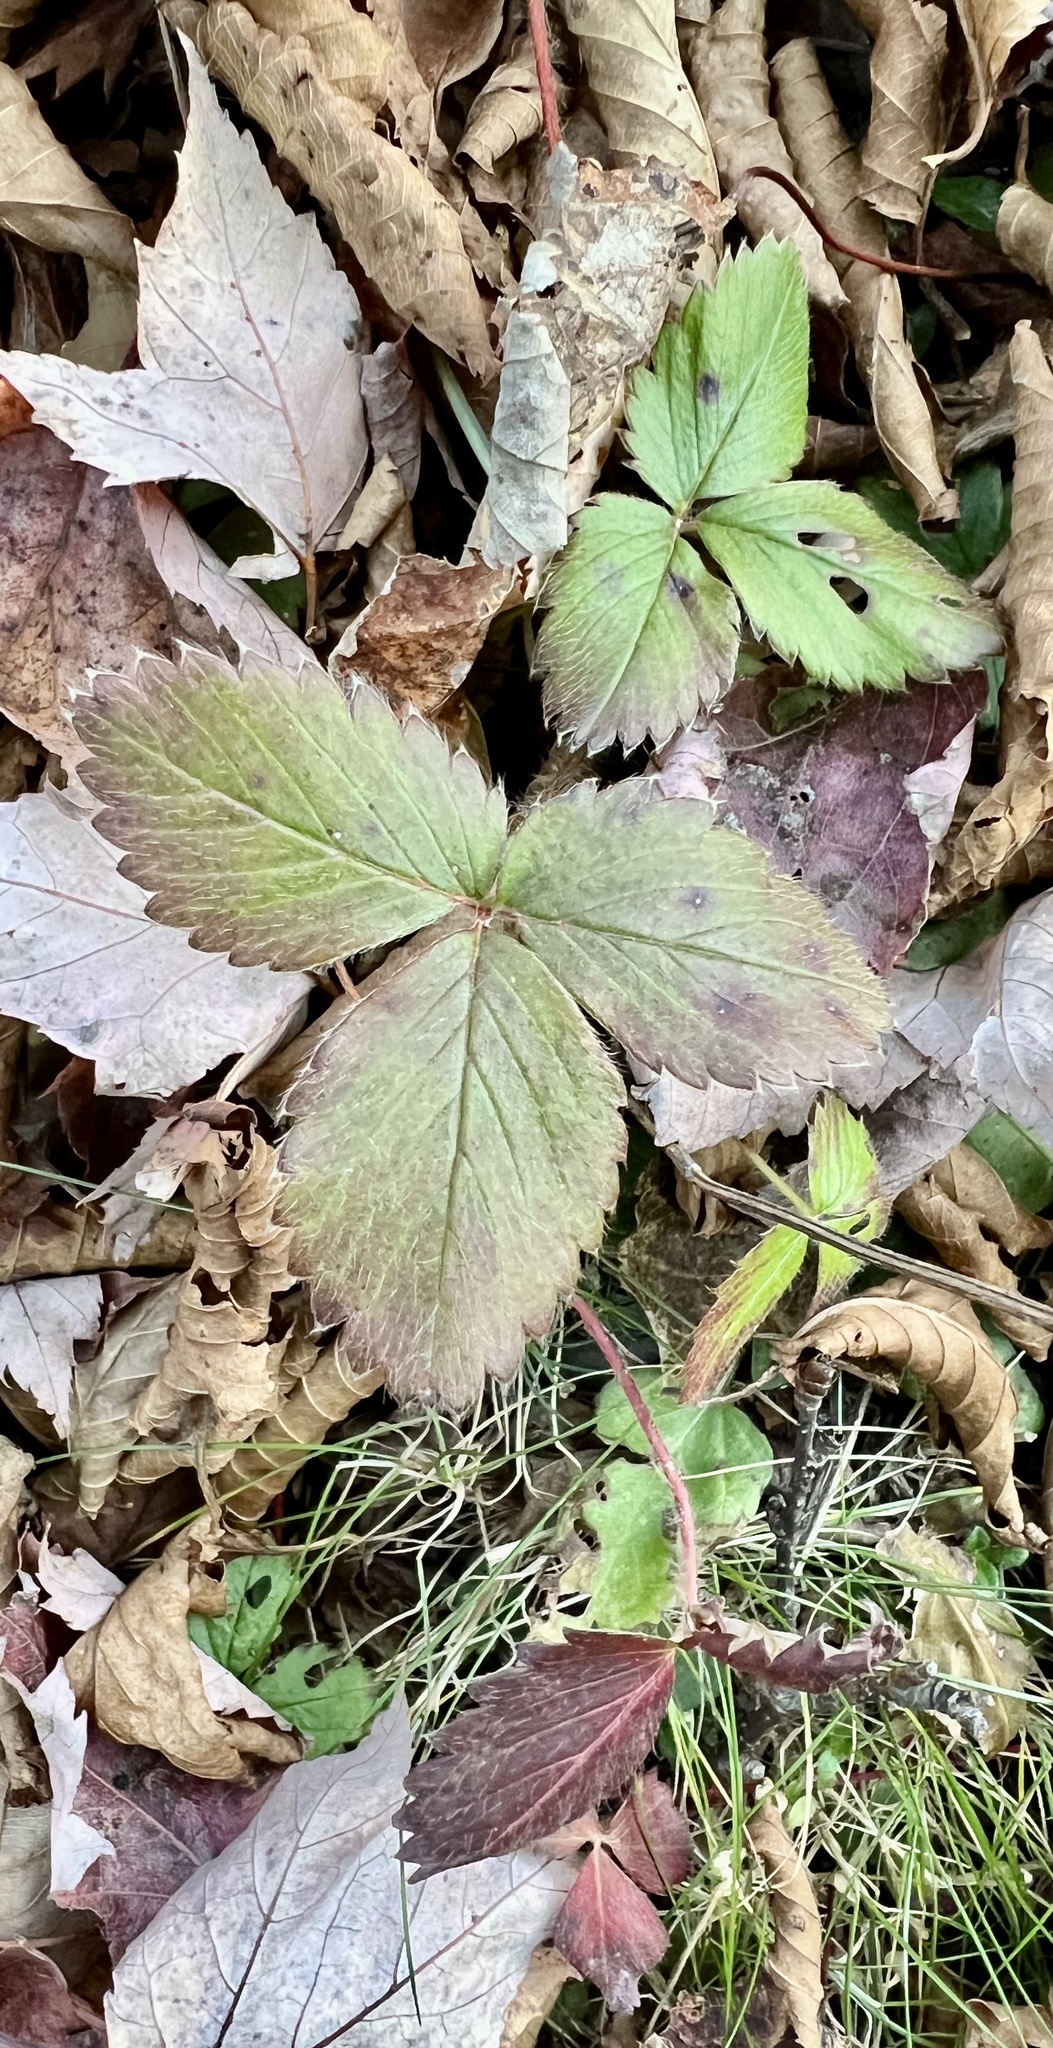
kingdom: Plantae
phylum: Tracheophyta
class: Magnoliopsida
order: Rosales
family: Rosaceae
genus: Fragaria
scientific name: Fragaria virginiana
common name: Thickleaved wild strawberry
